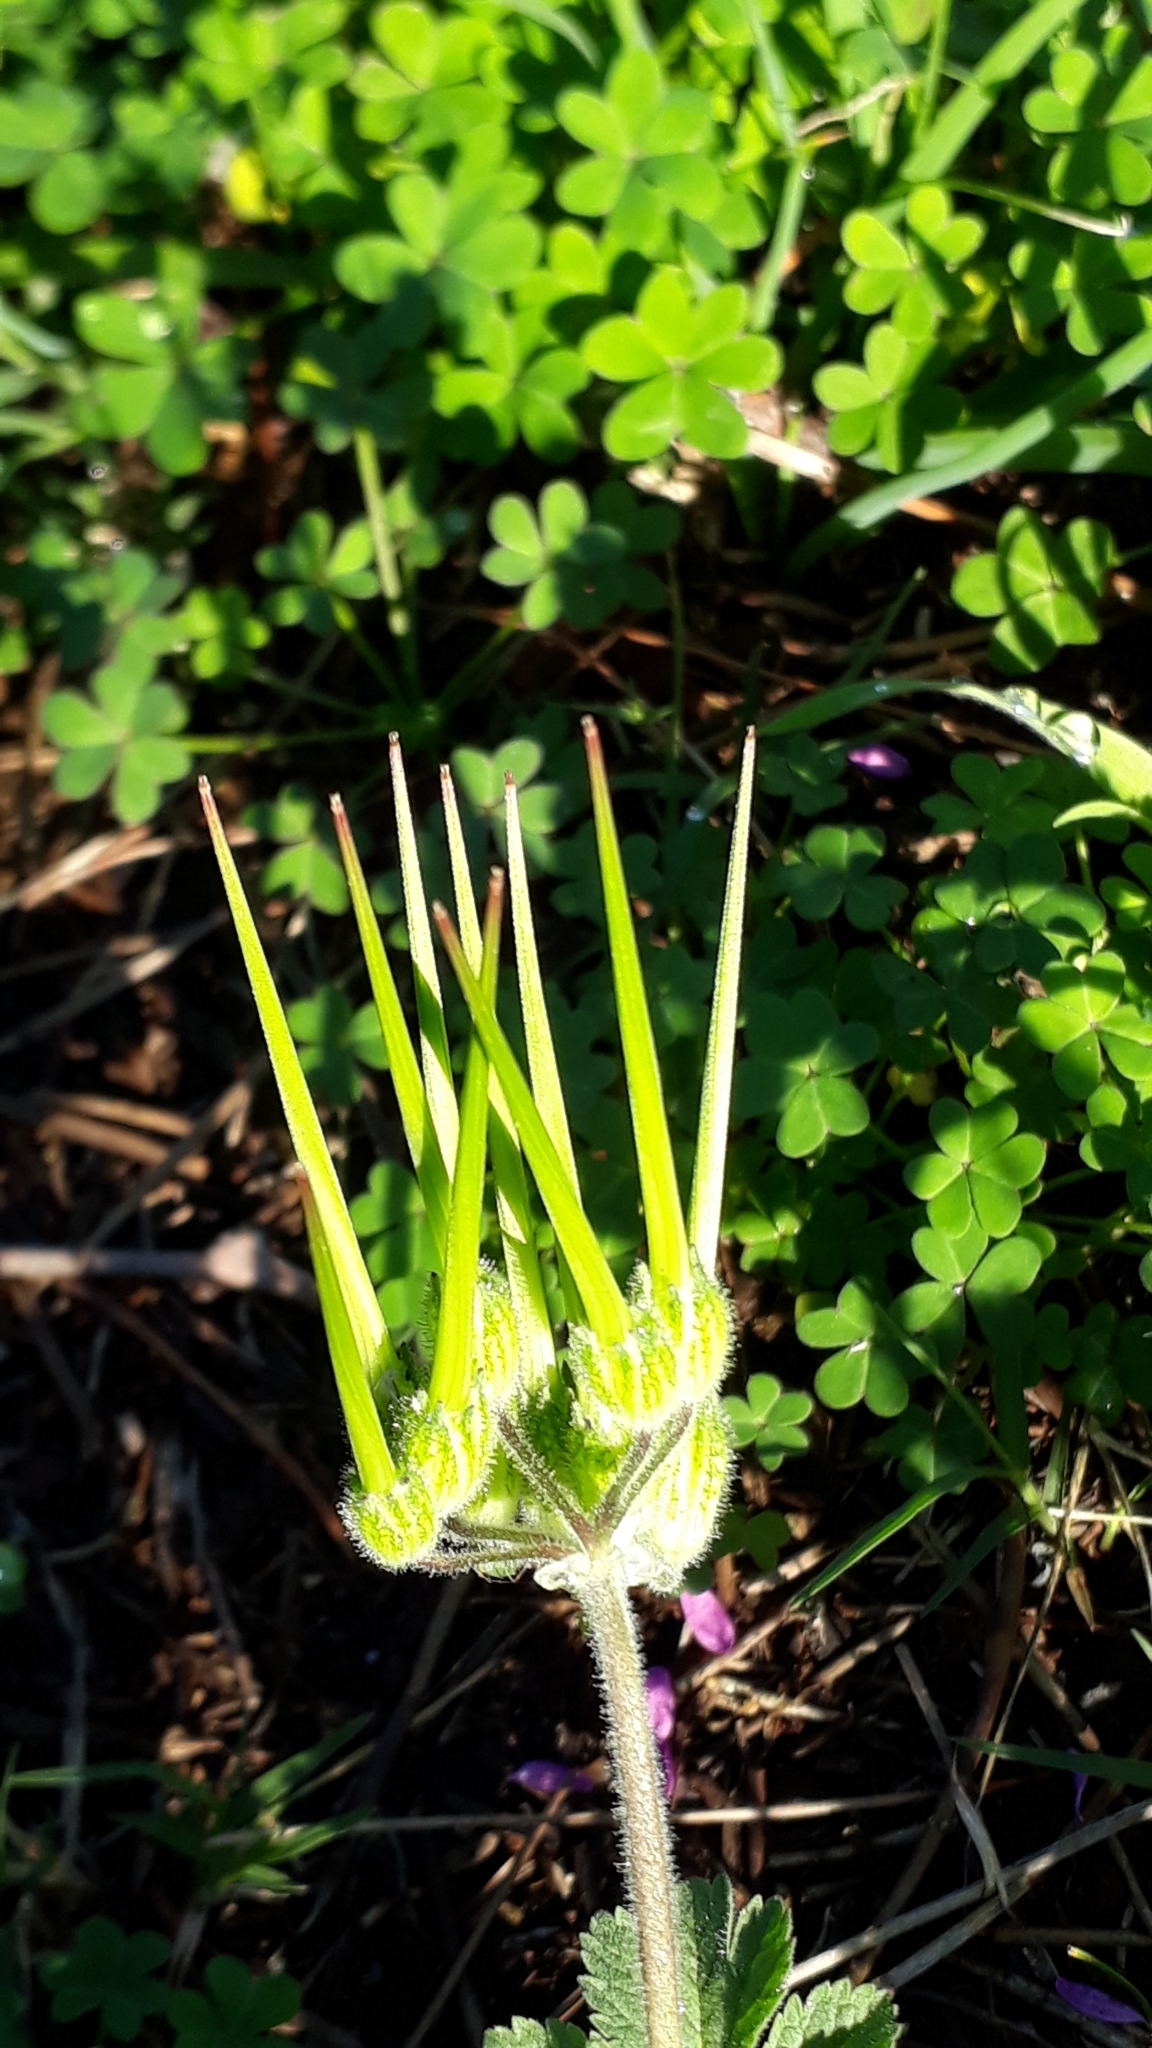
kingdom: Plantae
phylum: Tracheophyta
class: Magnoliopsida
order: Geraniales
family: Geraniaceae
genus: Erodium
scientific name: Erodium moschatum
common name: Musk stork's-bill
